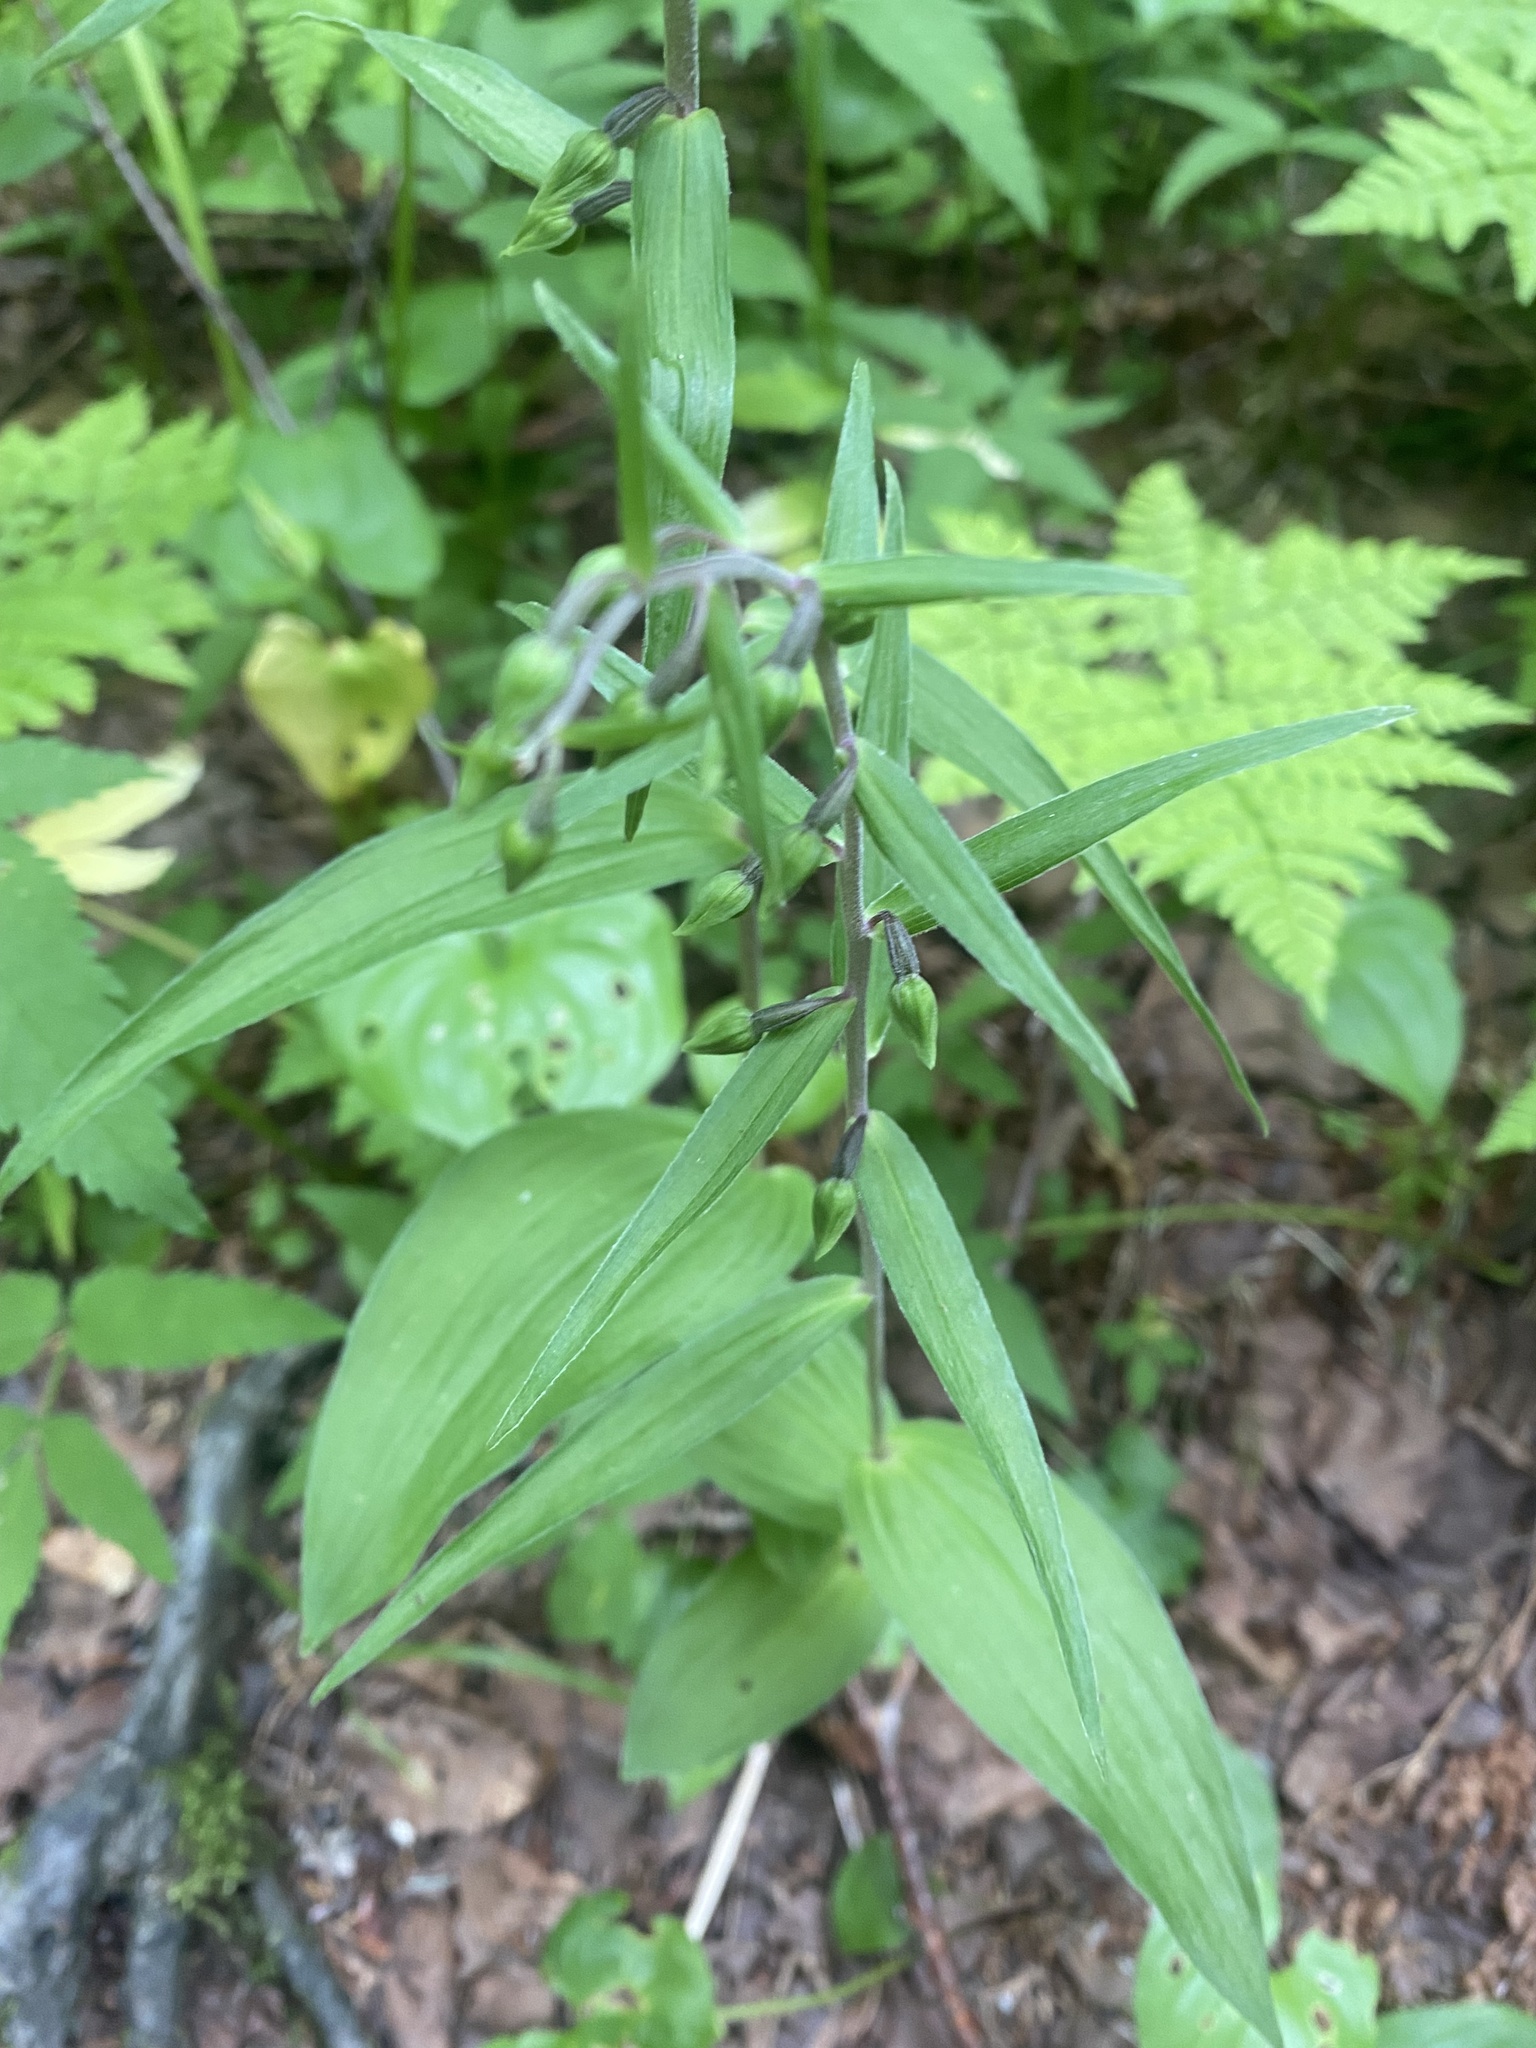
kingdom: Plantae
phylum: Tracheophyta
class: Liliopsida
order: Asparagales
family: Orchidaceae
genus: Epipactis
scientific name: Epipactis papillosa
